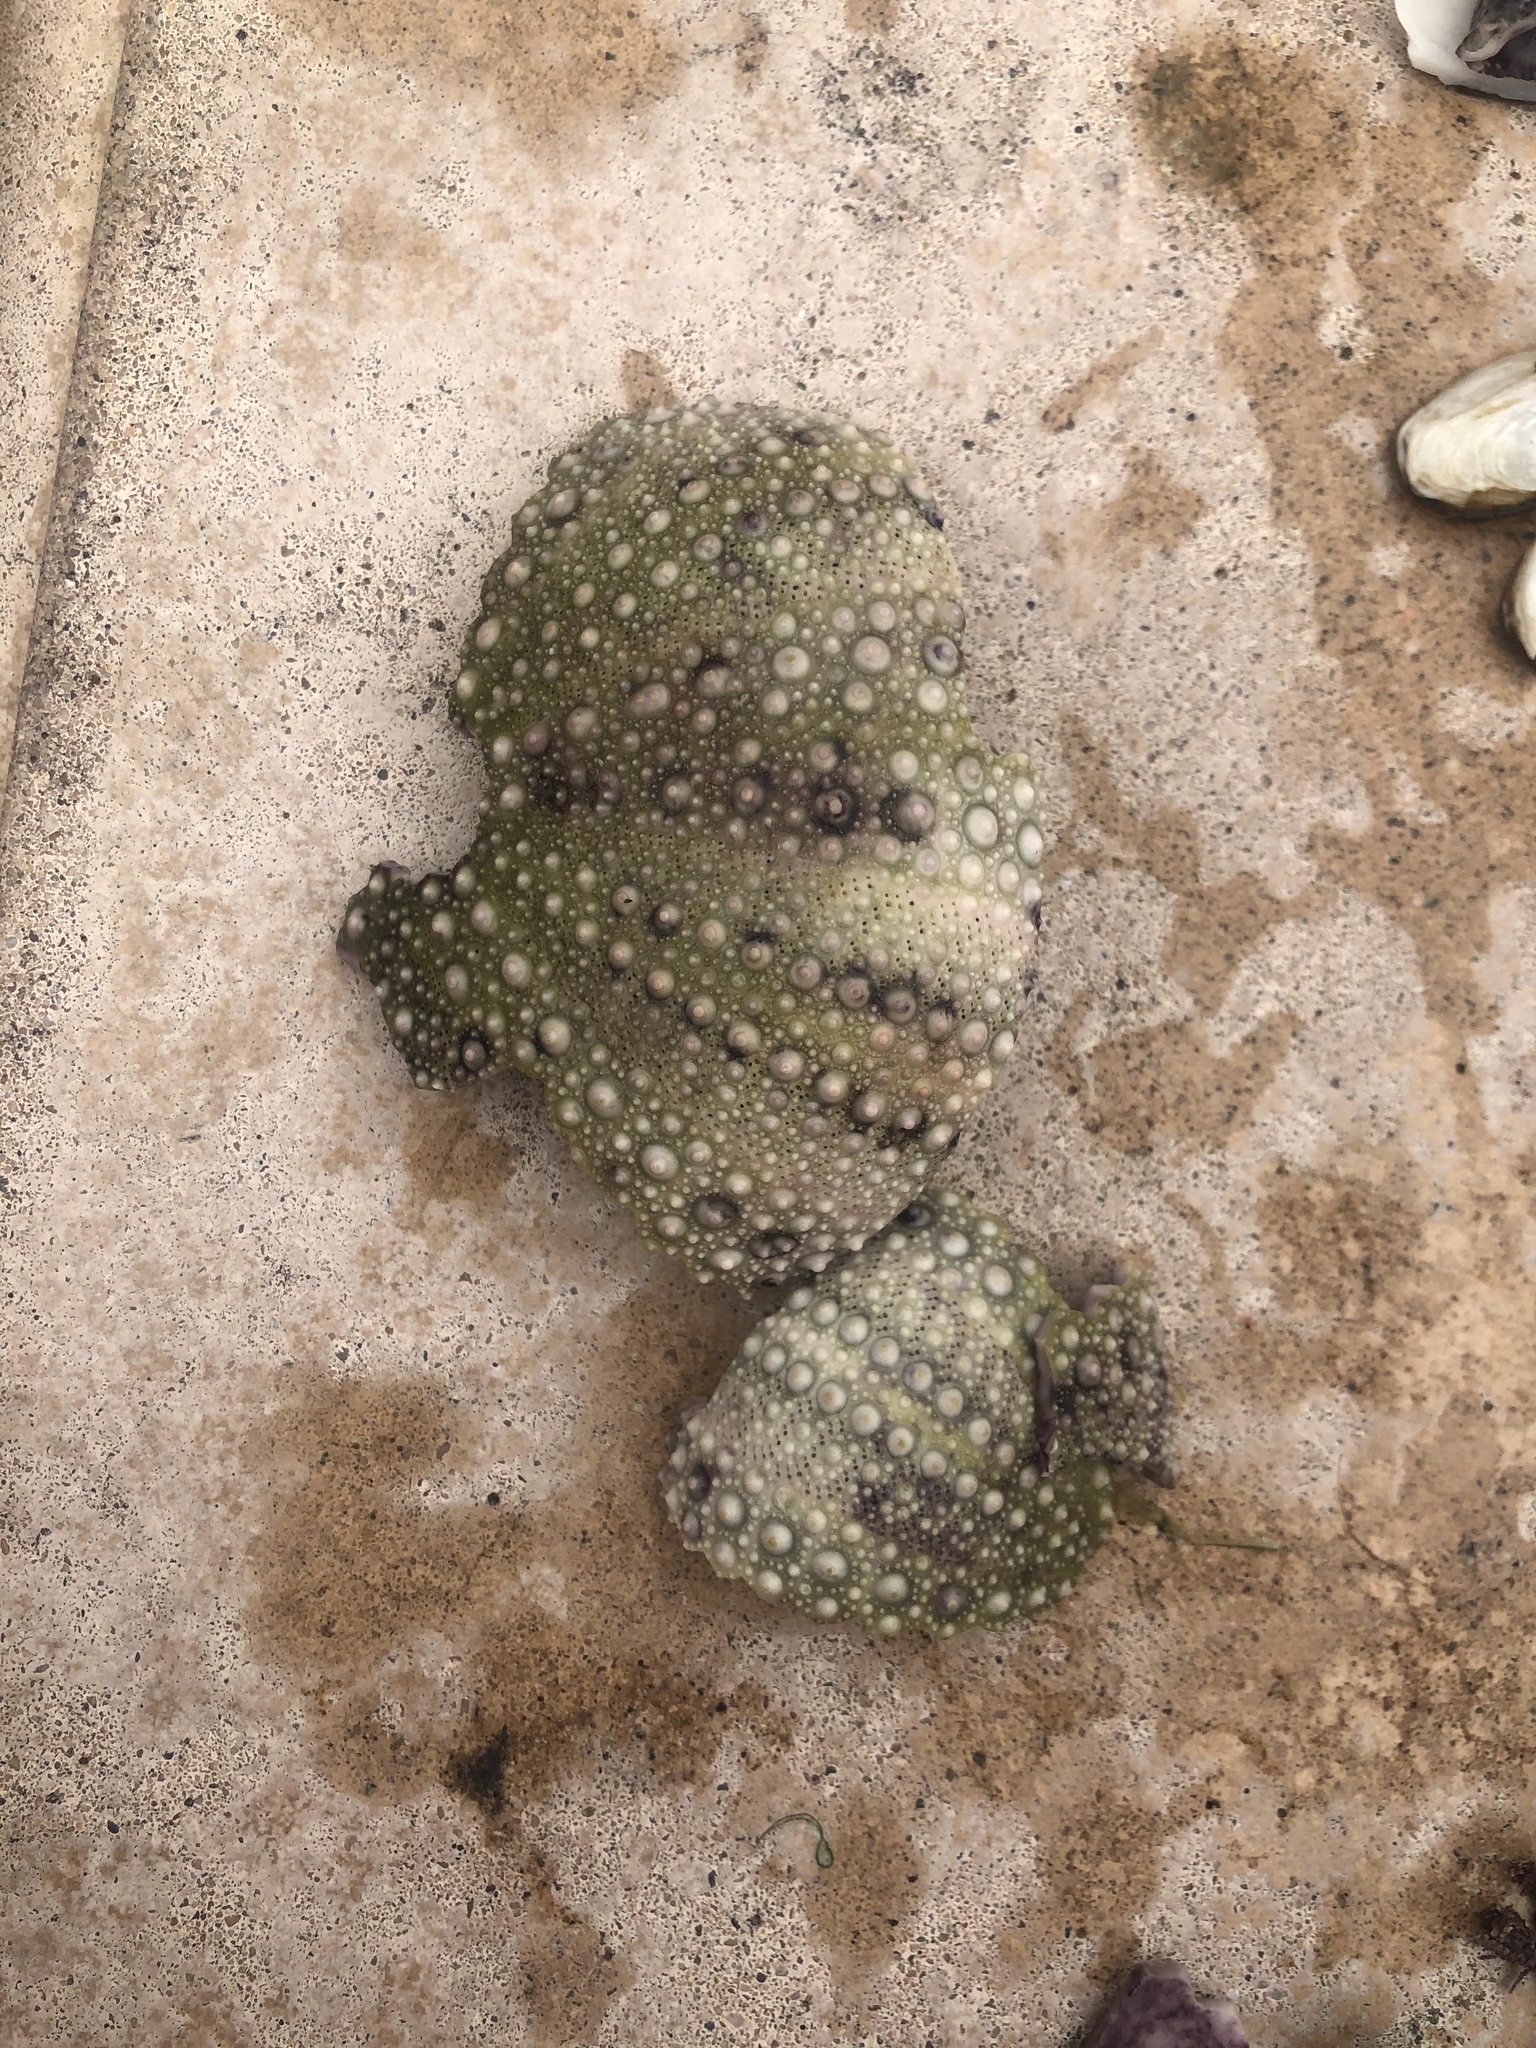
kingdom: Animalia
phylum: Echinodermata
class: Echinoidea
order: Camarodonta
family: Strongylocentrotidae
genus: Strongylocentrotus
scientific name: Strongylocentrotus purpuratus
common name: Purple sea urchin
